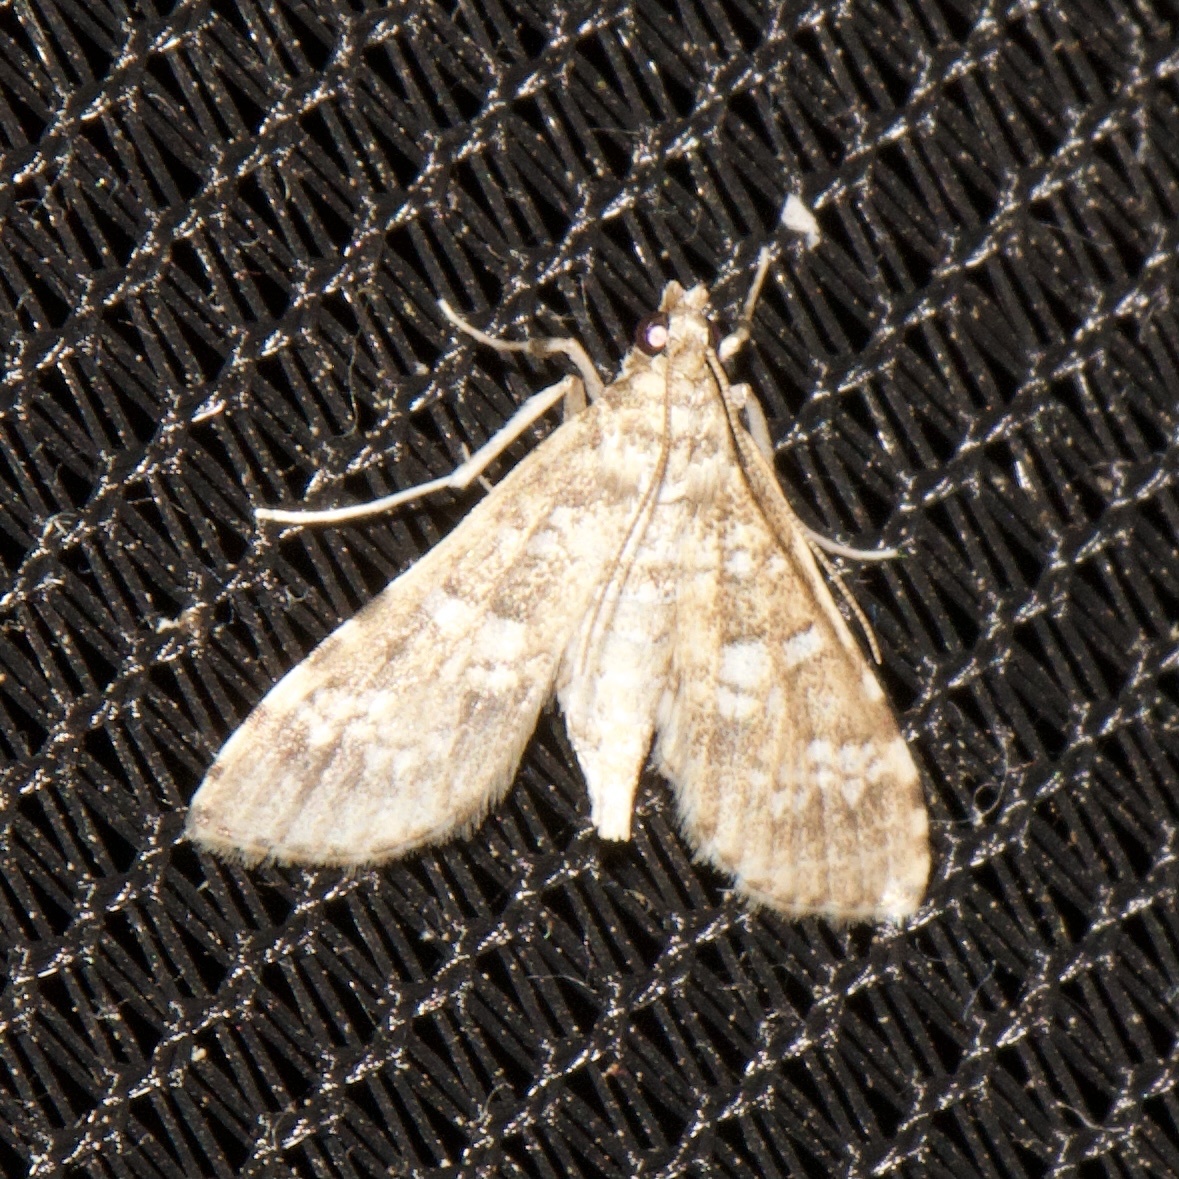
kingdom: Animalia
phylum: Arthropoda
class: Insecta
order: Lepidoptera
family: Crambidae
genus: Samea
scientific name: Samea multiplicalis
